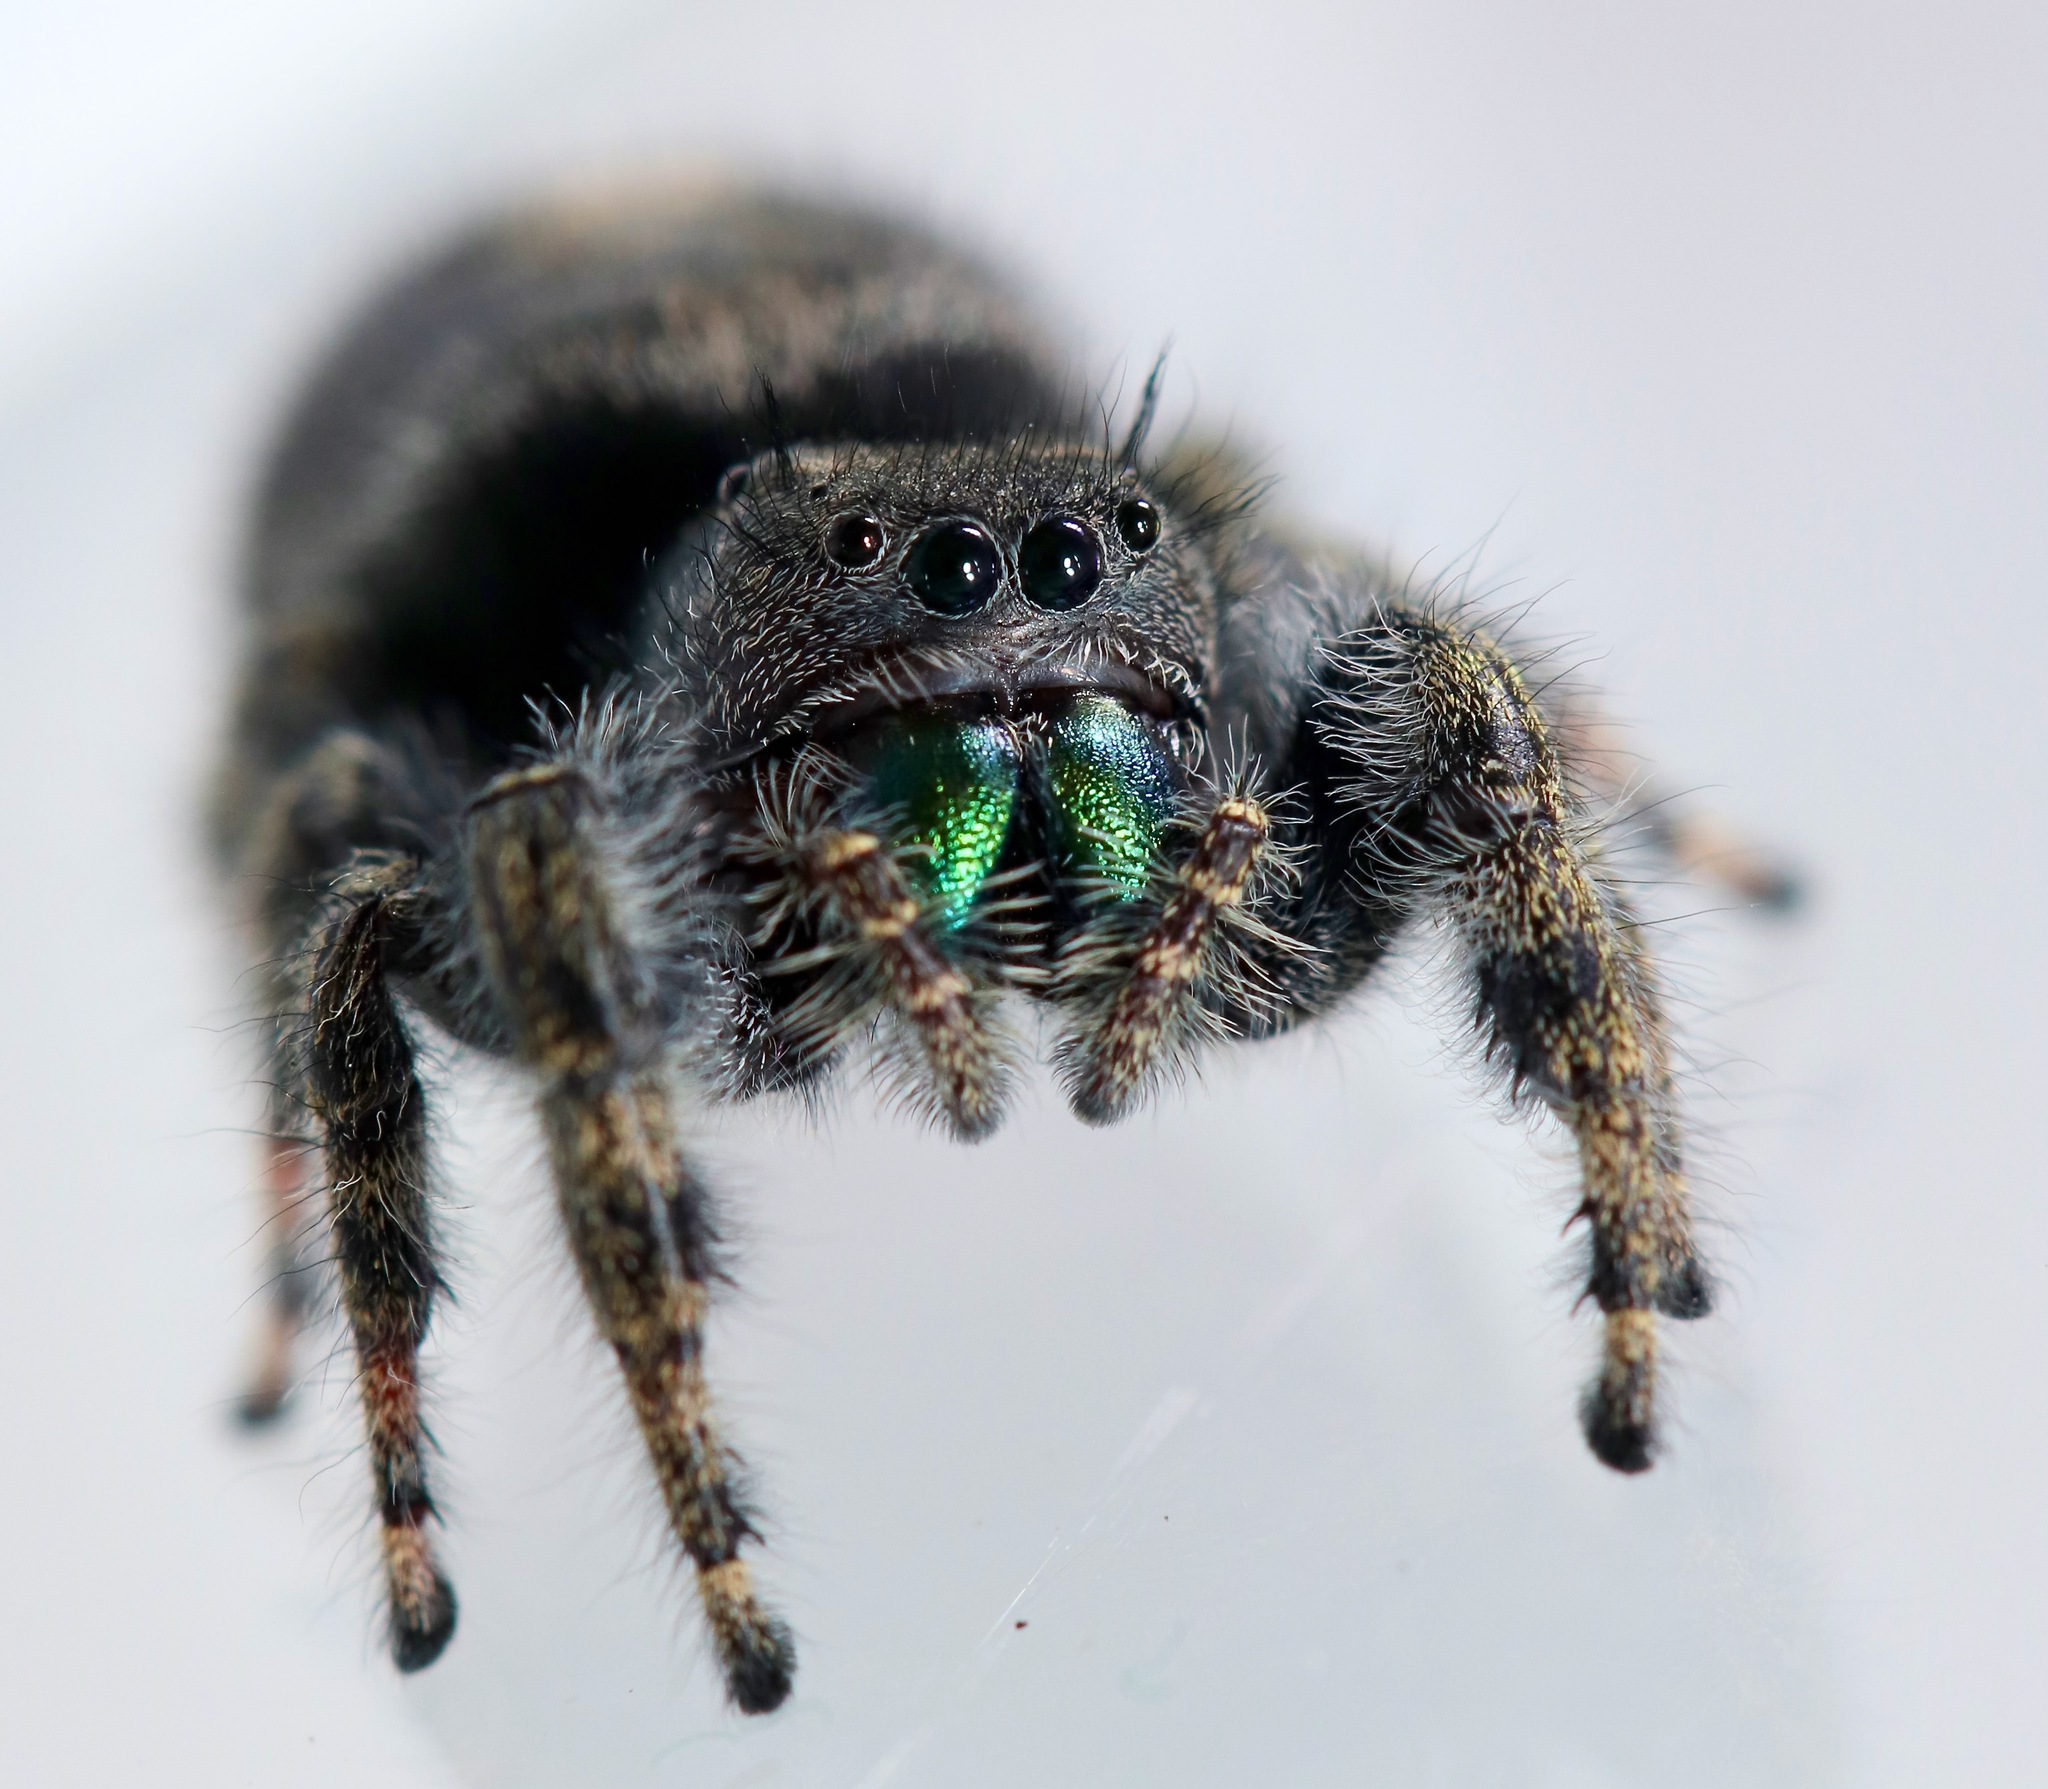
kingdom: Animalia
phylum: Arthropoda
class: Arachnida
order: Araneae
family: Salticidae
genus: Phidippus
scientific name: Phidippus audax
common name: Bold jumper
